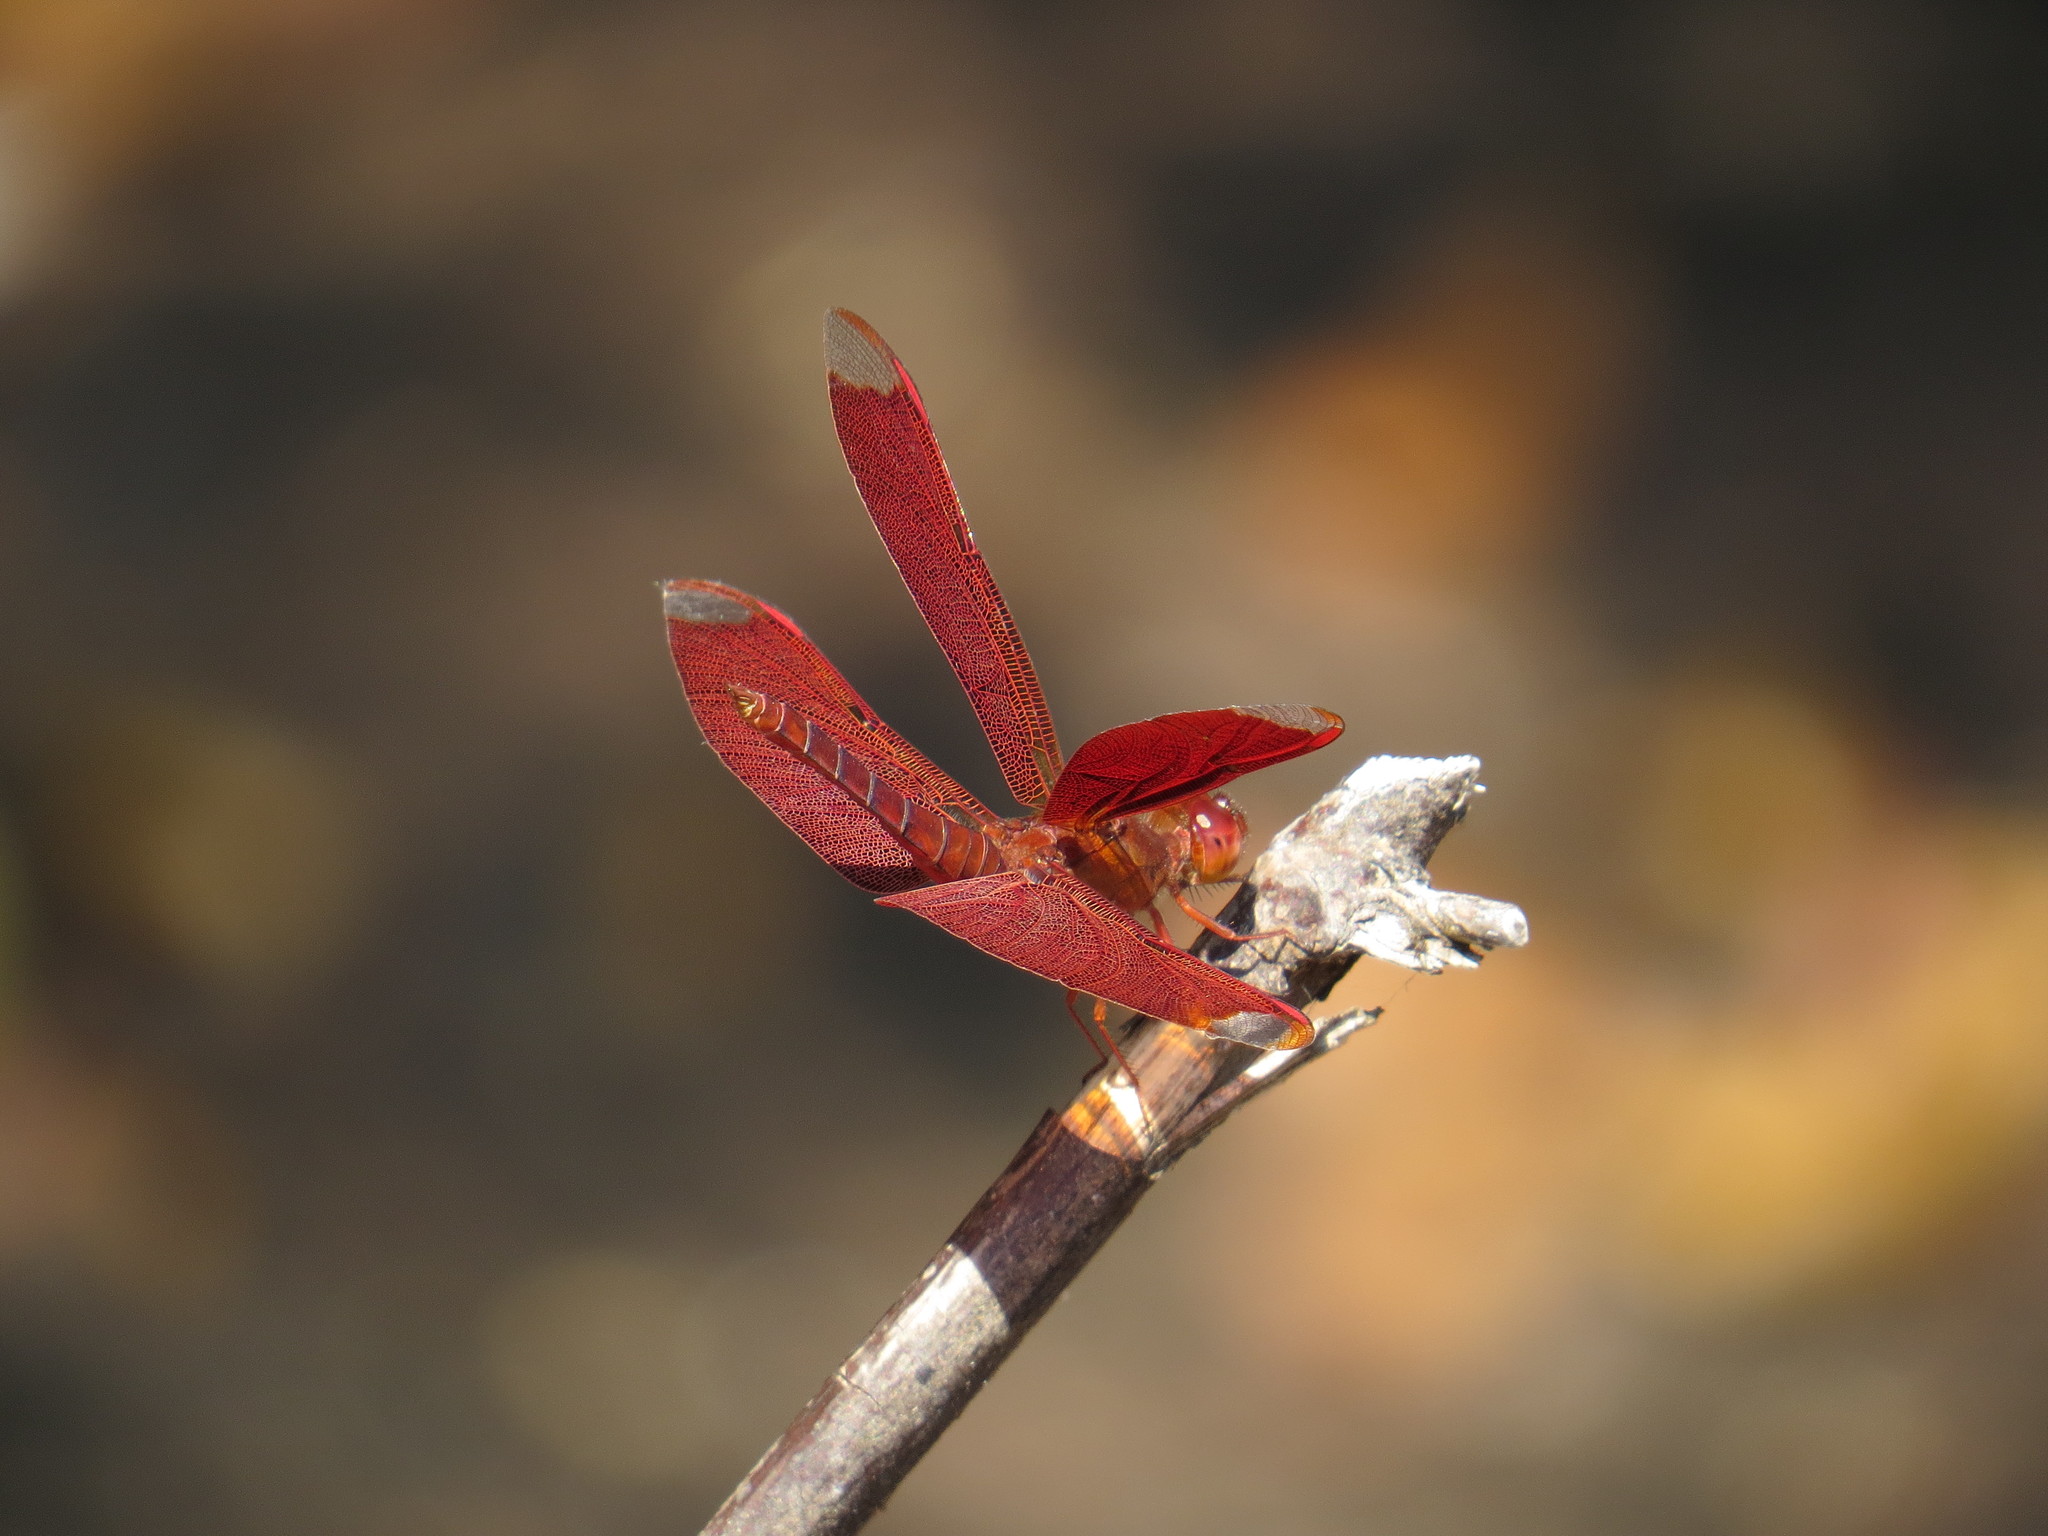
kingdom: Animalia
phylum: Arthropoda
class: Insecta
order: Odonata
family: Libellulidae
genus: Neurothemis
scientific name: Neurothemis fulvia
